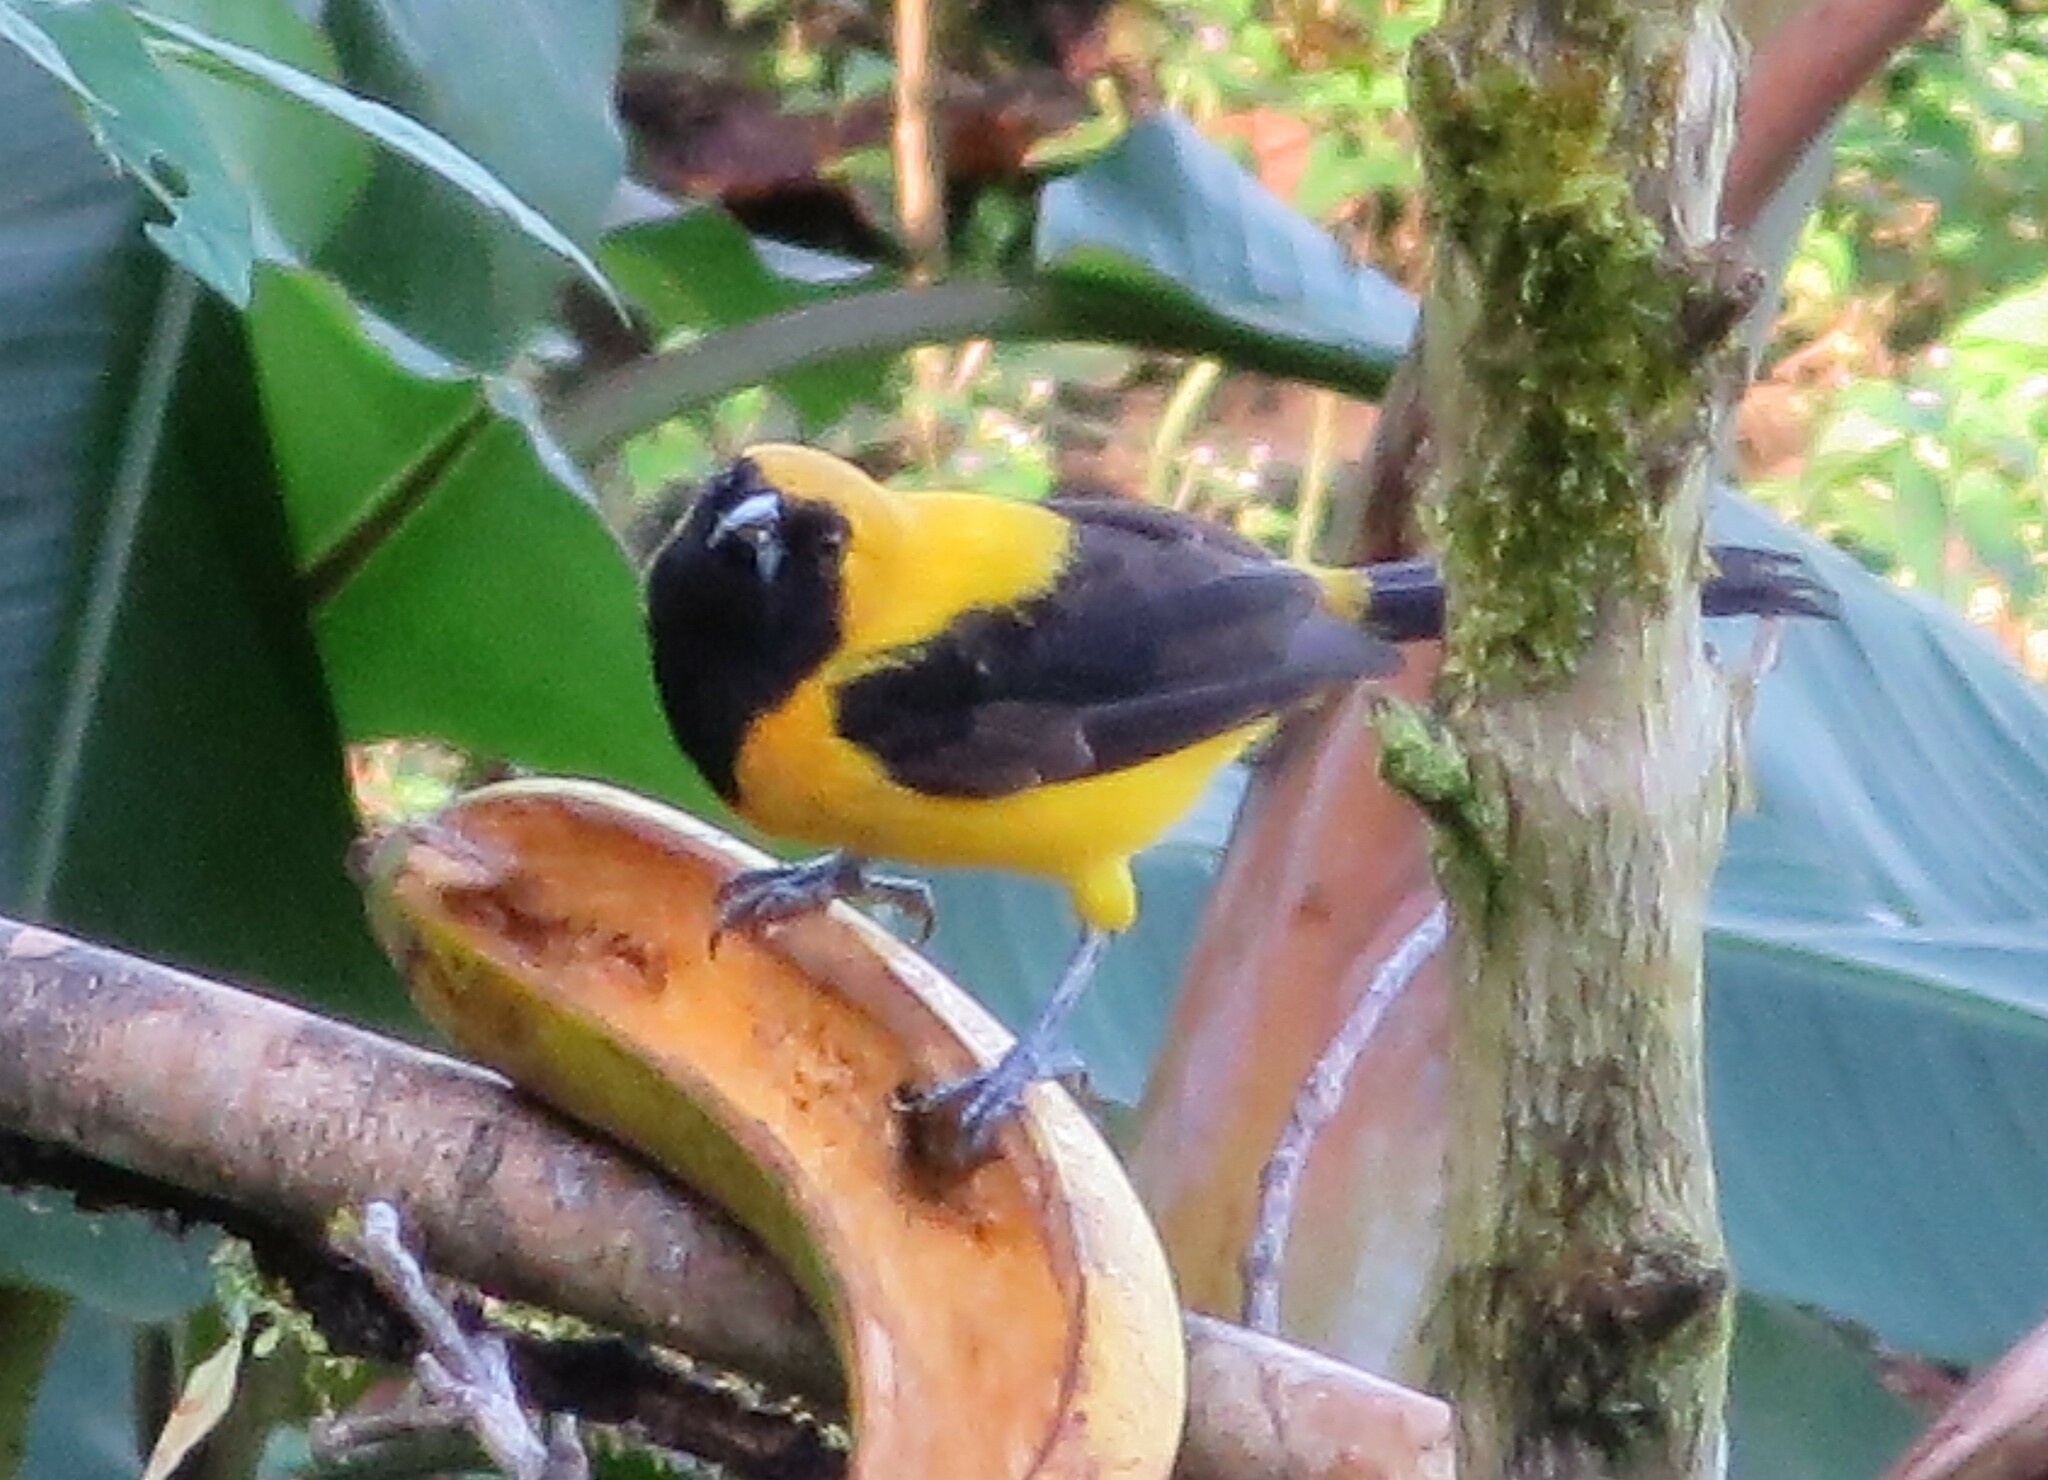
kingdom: Animalia
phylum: Chordata
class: Aves
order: Passeriformes
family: Icteridae
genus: Icterus
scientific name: Icterus chrysater
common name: Yellow-backed oriole
